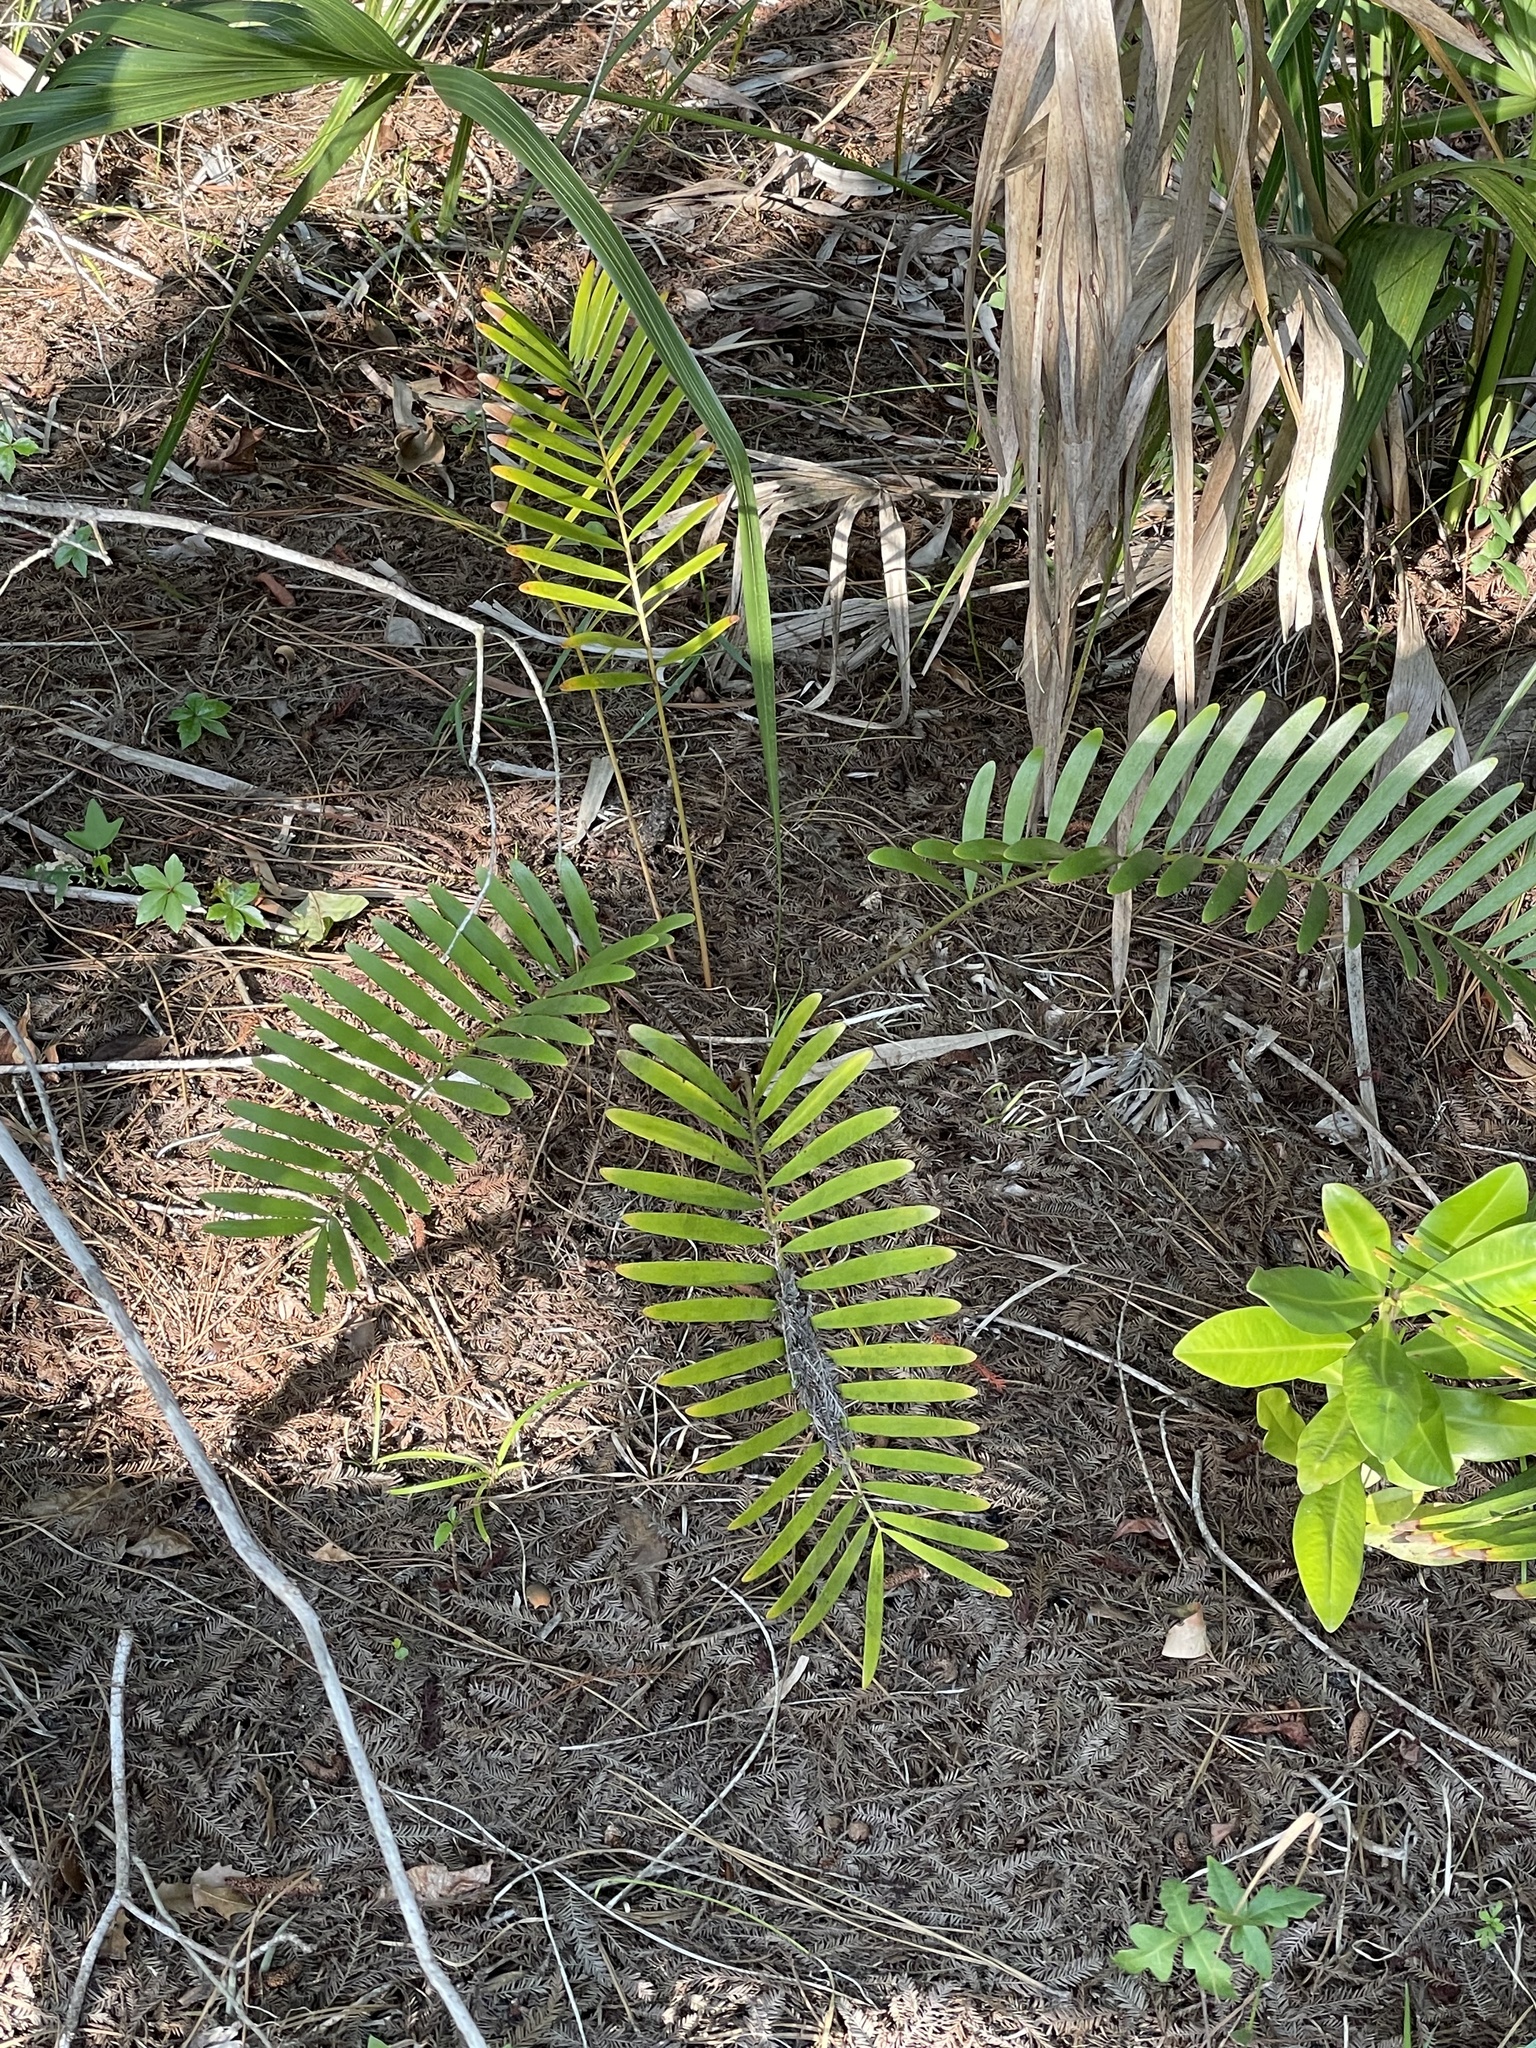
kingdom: Plantae
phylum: Tracheophyta
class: Cycadopsida
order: Cycadales
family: Zamiaceae
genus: Zamia
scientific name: Zamia integrifolia
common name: Florida arrowroot
